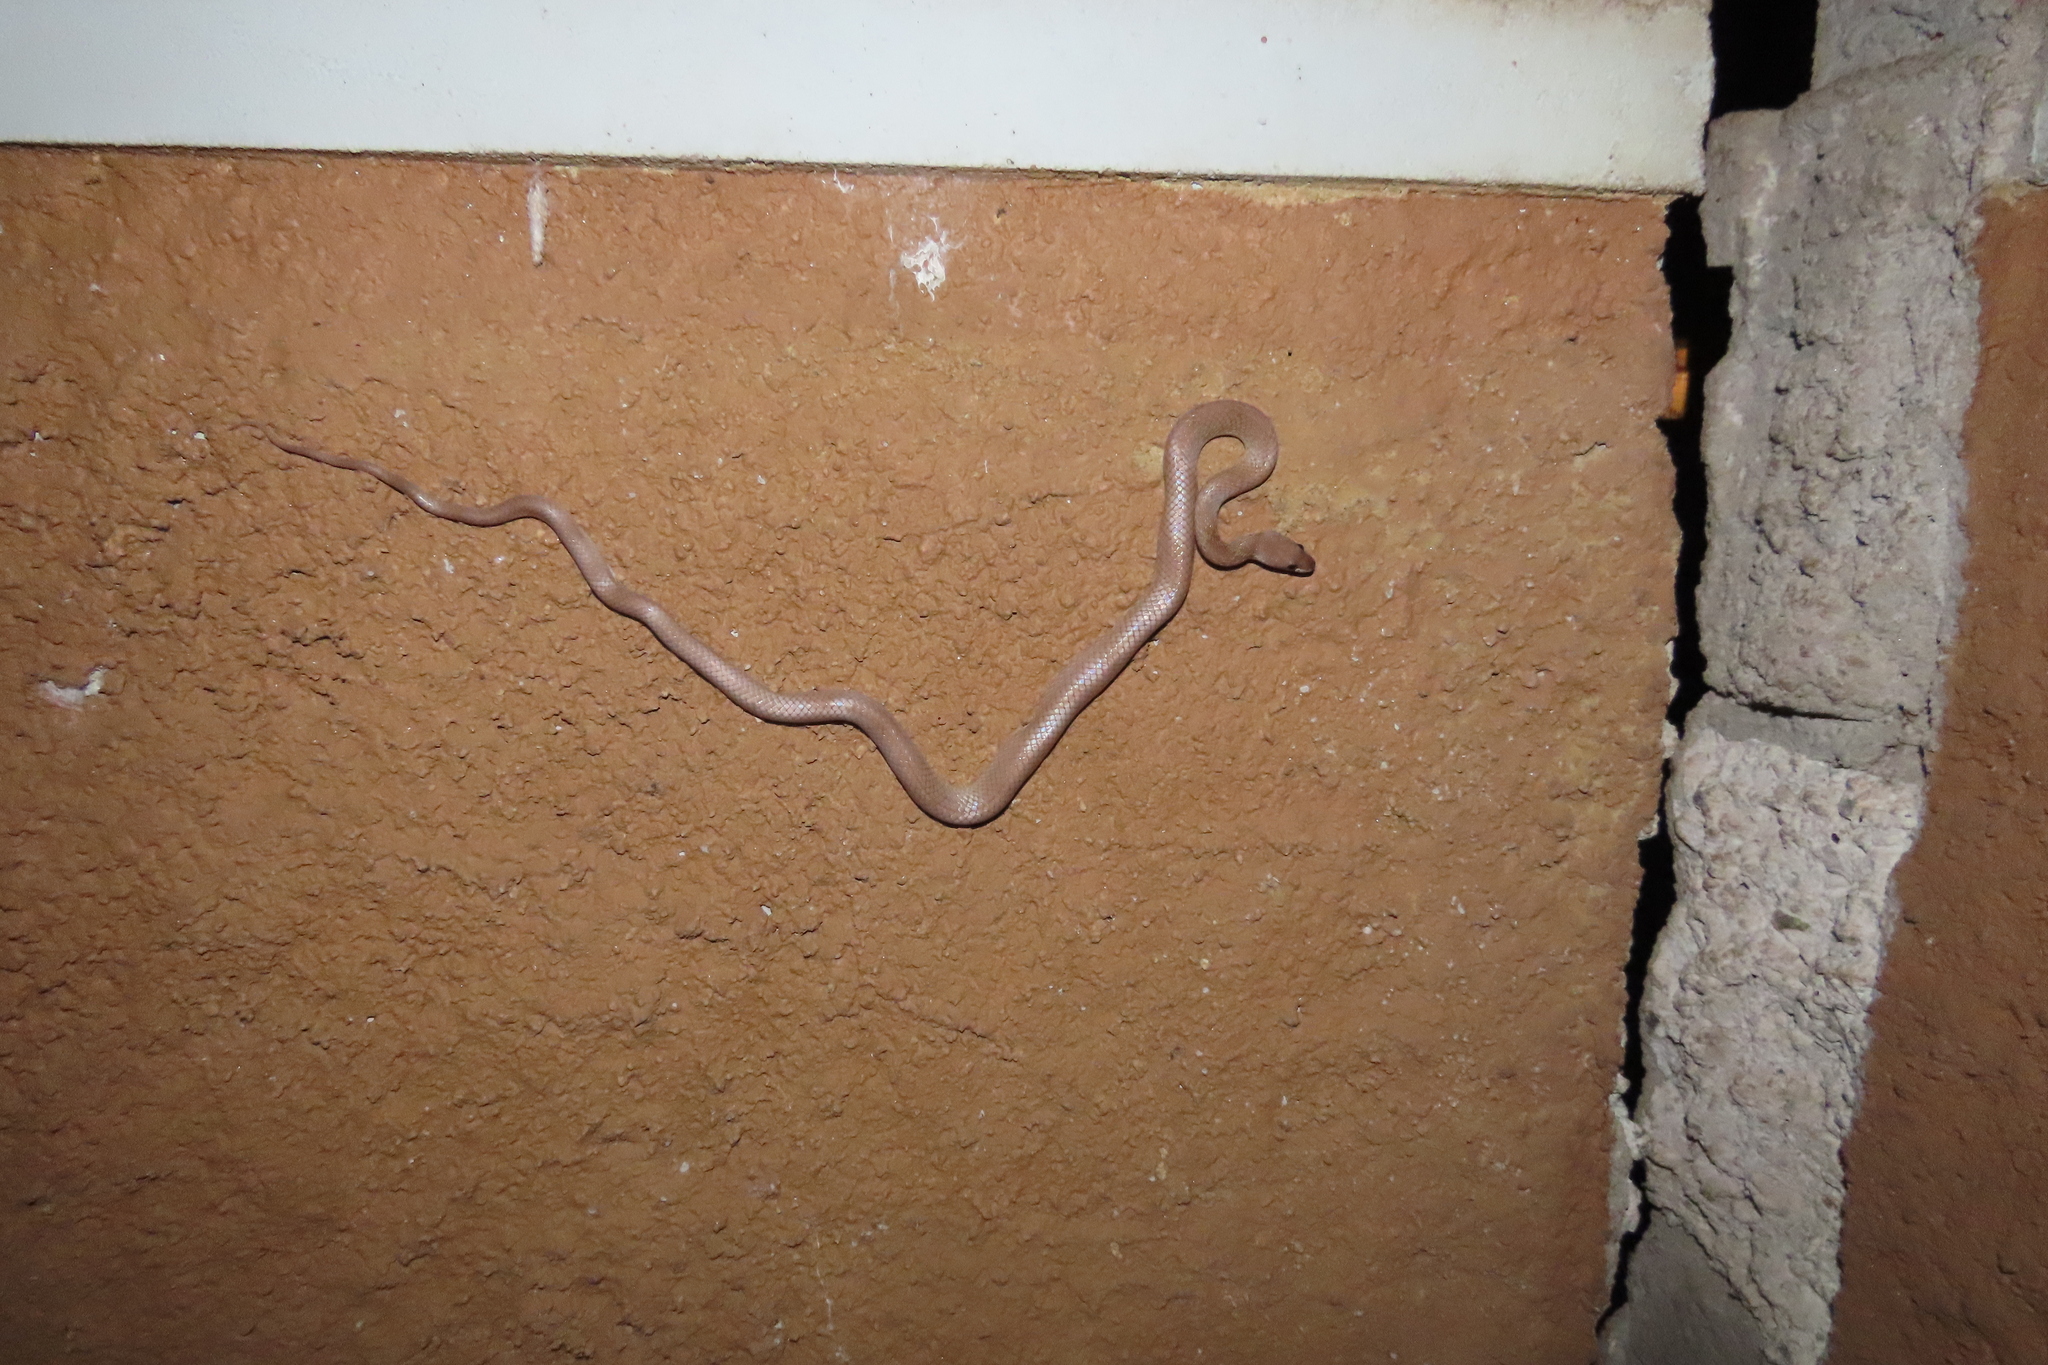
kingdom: Animalia
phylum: Chordata
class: Squamata
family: Colubridae
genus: Lycodon
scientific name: Lycodon fasciolatus
